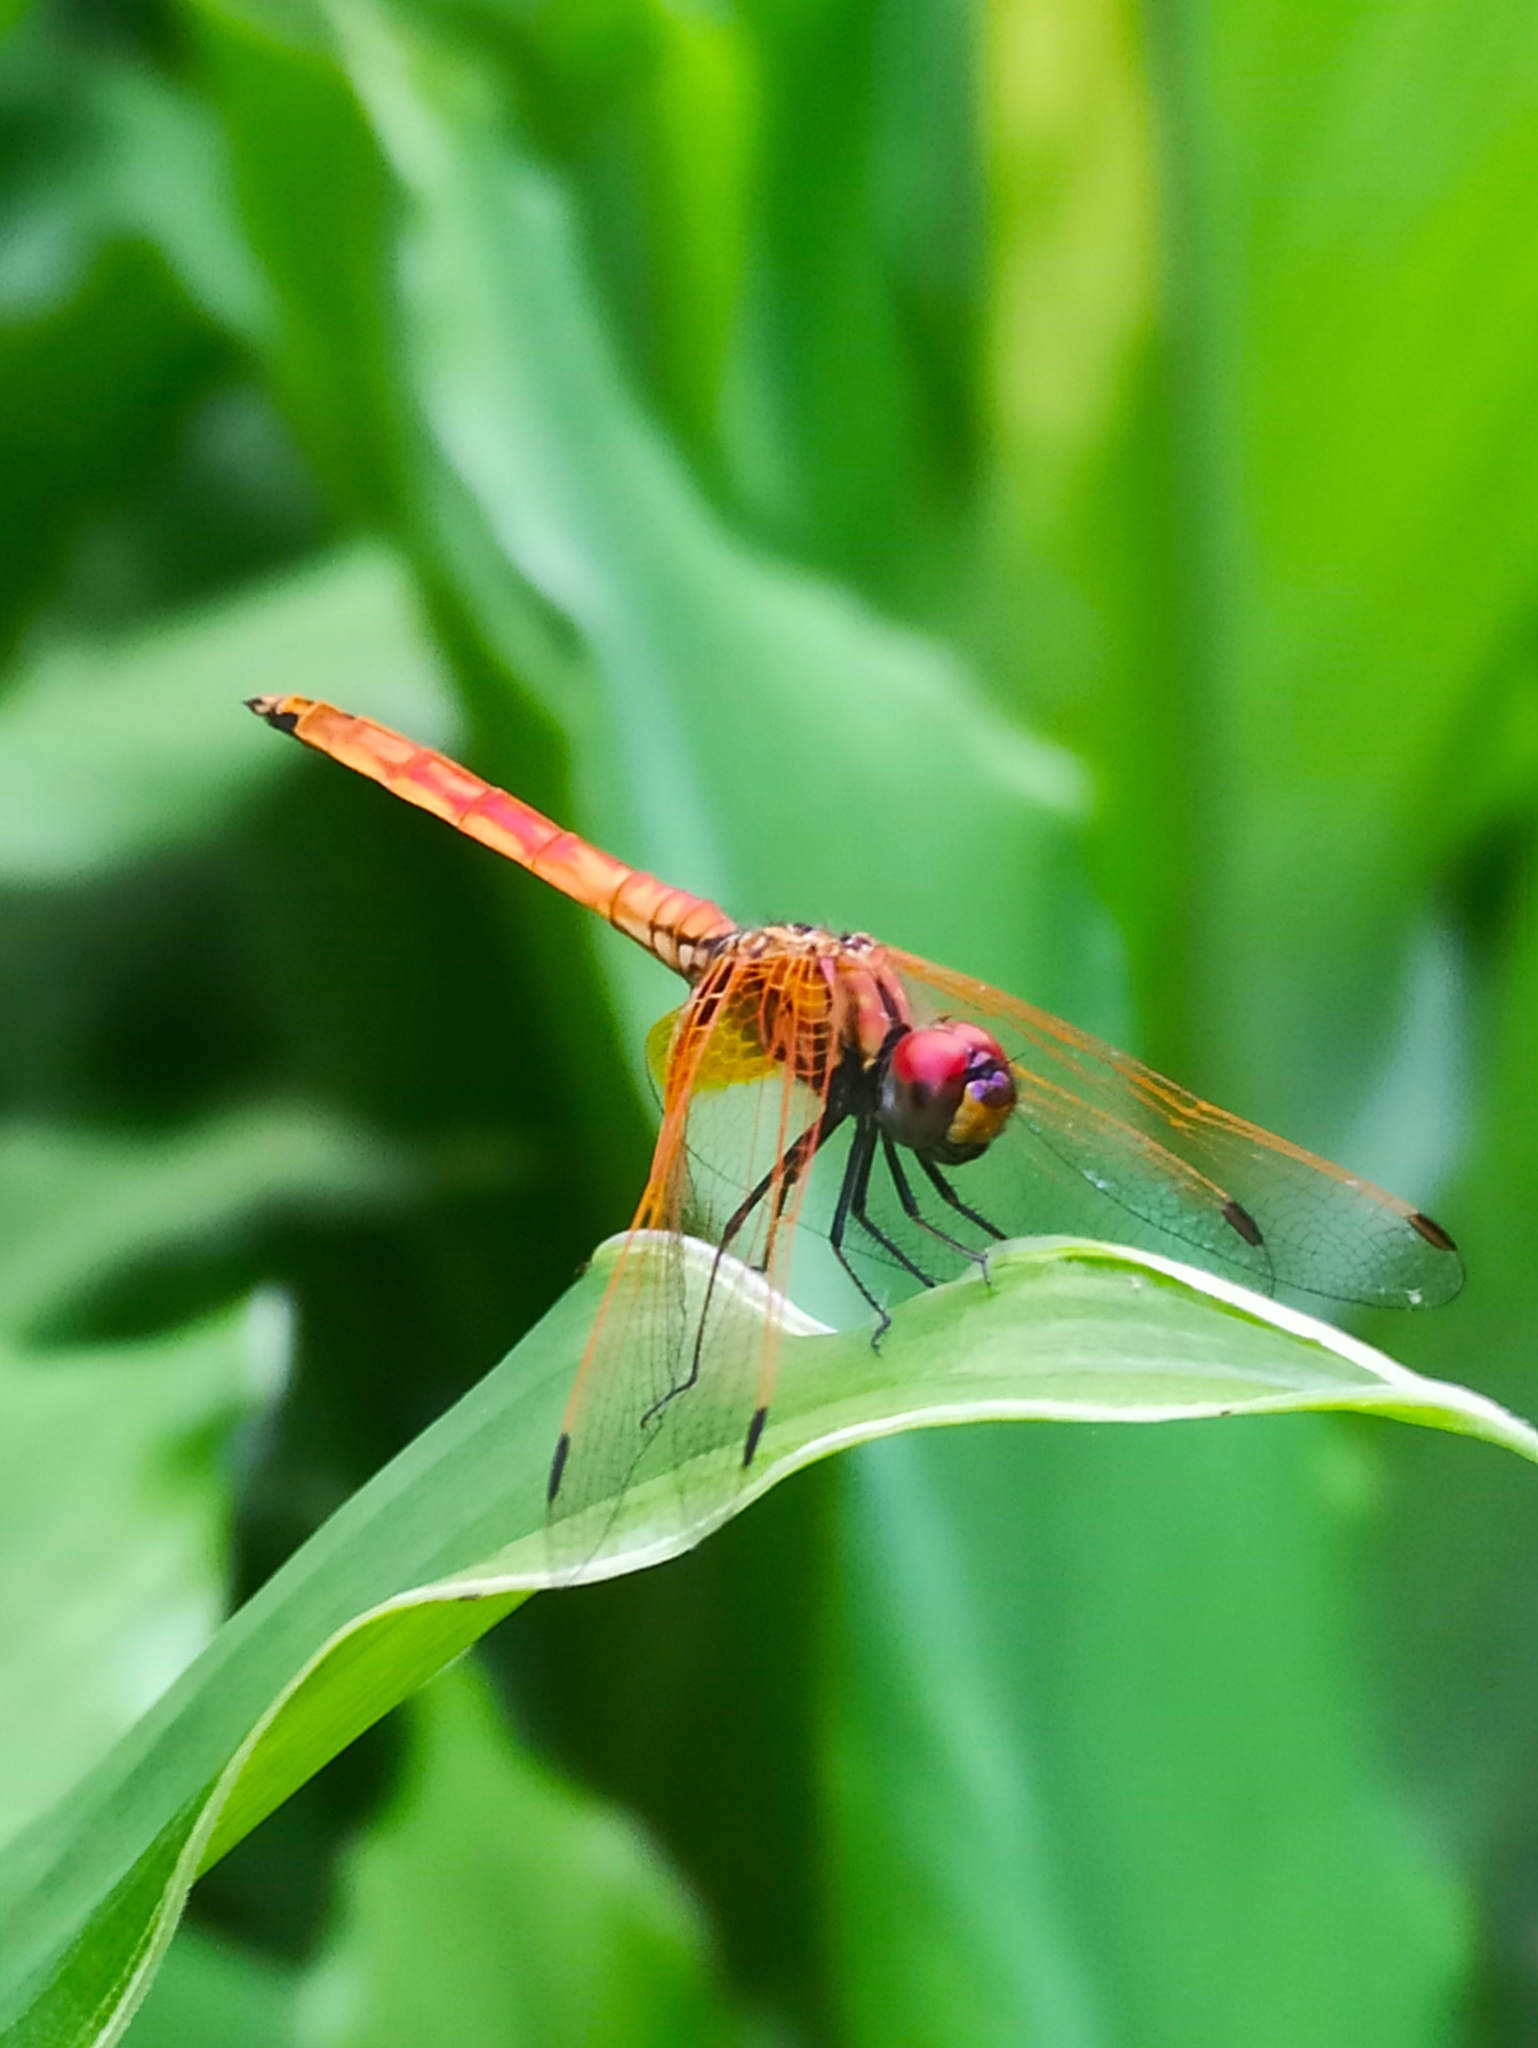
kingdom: Animalia
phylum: Arthropoda
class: Insecta
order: Odonata
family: Libellulidae
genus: Trithemis
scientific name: Trithemis aurora
